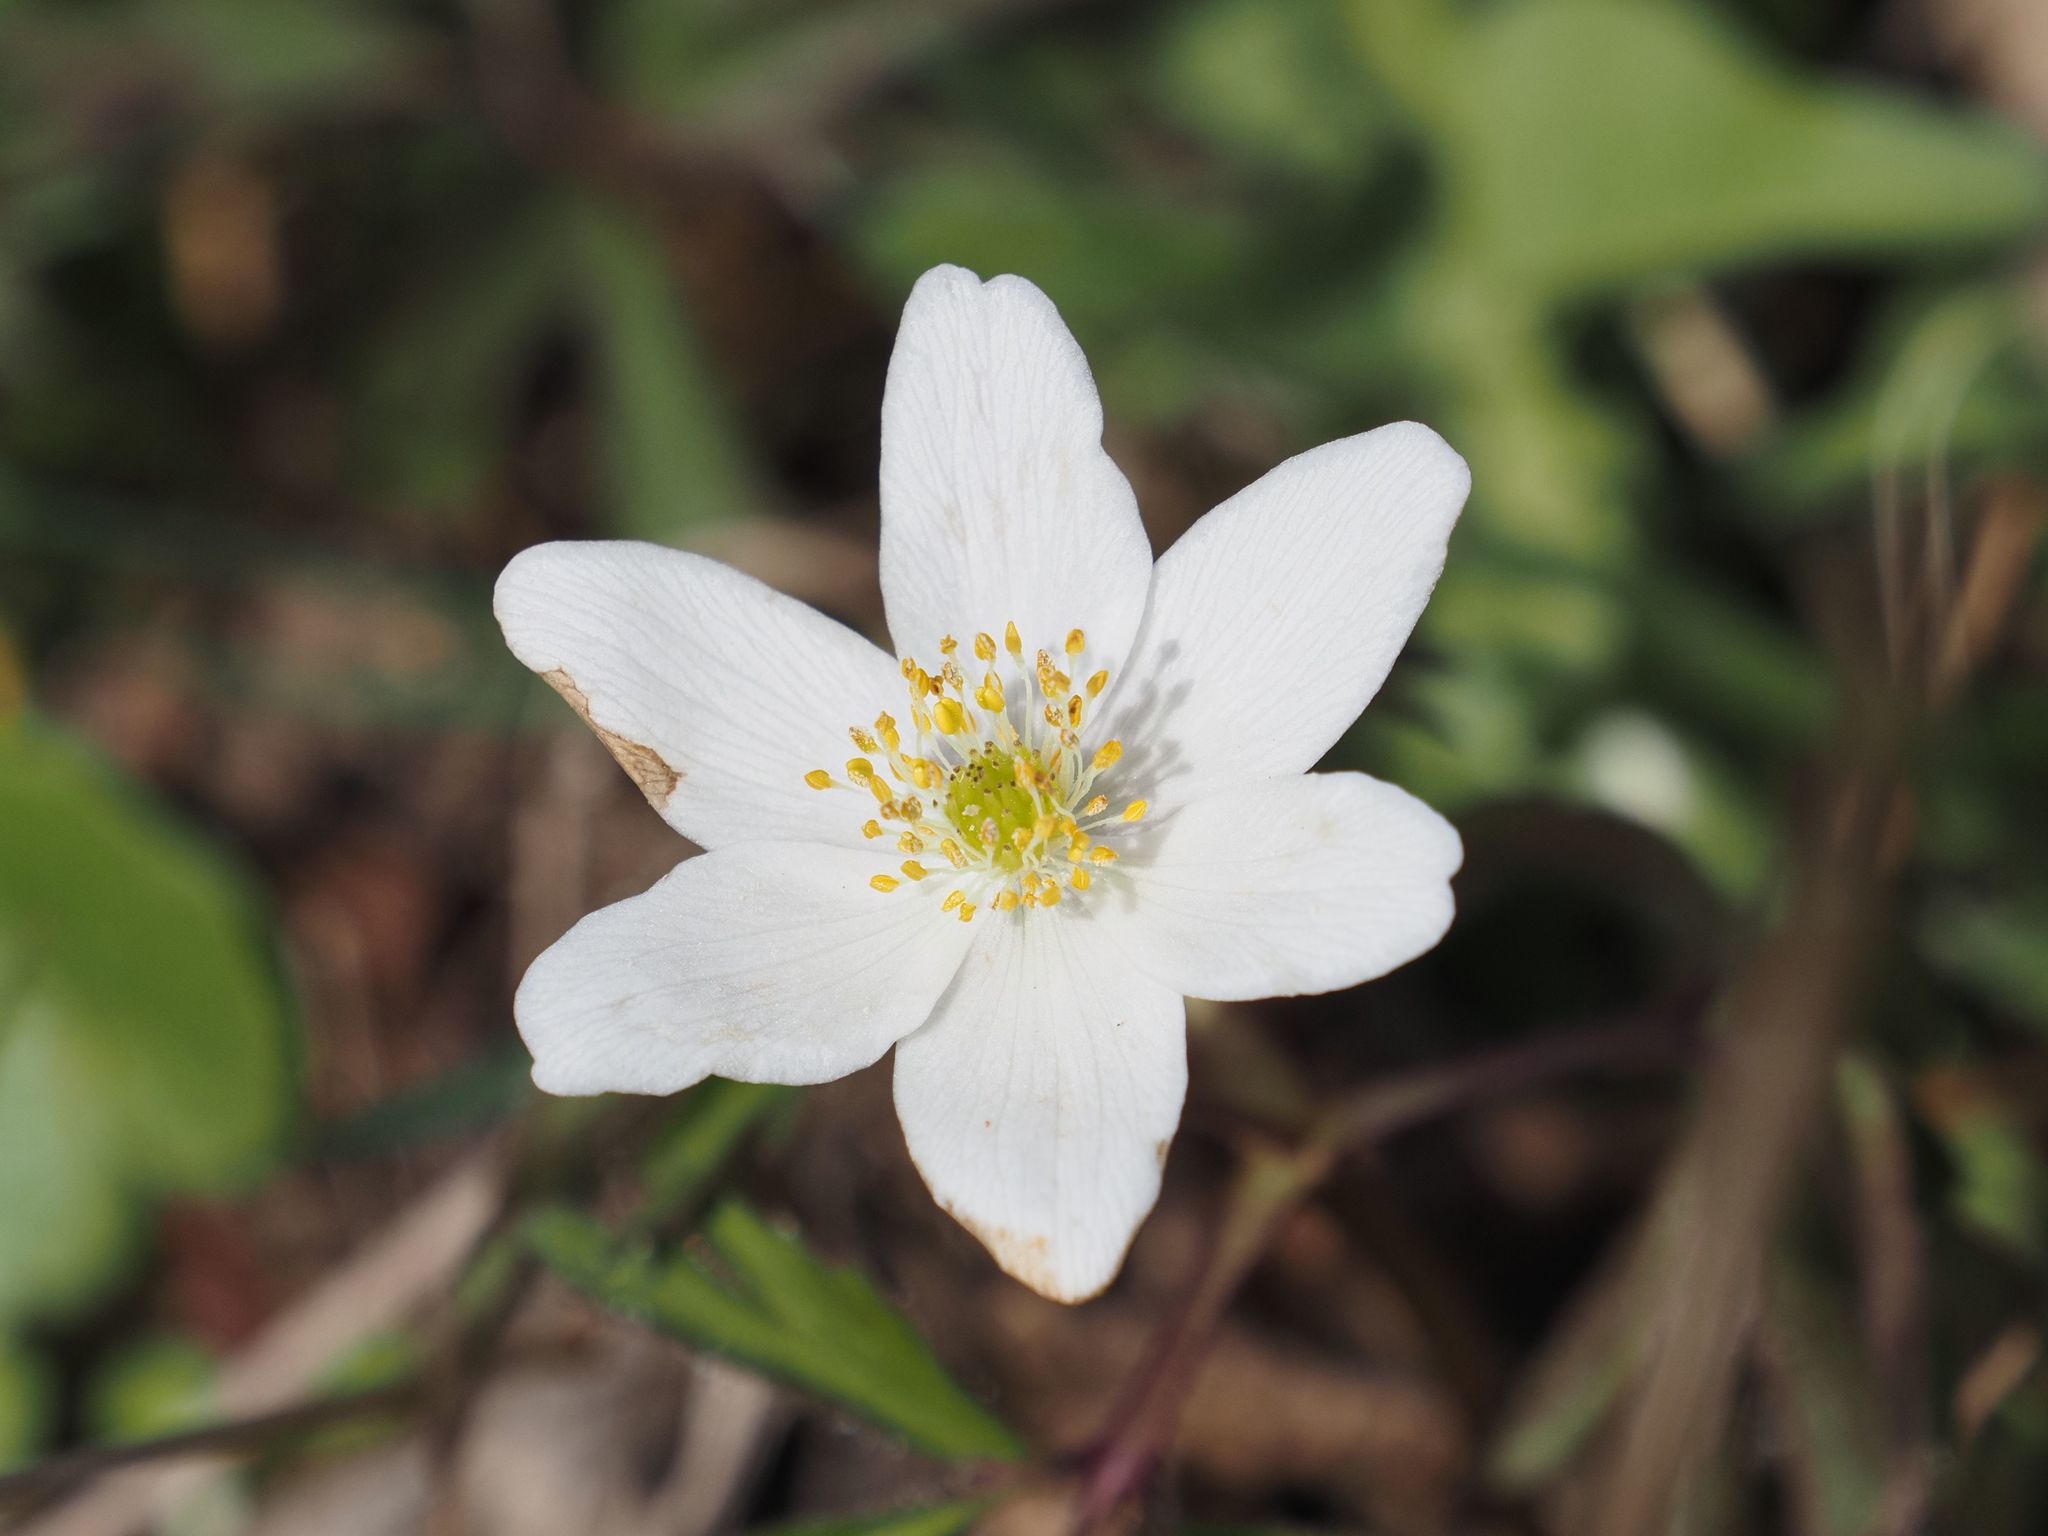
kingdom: Plantae
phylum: Tracheophyta
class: Magnoliopsida
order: Ranunculales
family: Ranunculaceae
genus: Anemone
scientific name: Anemone nemorosa
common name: Wood anemone
